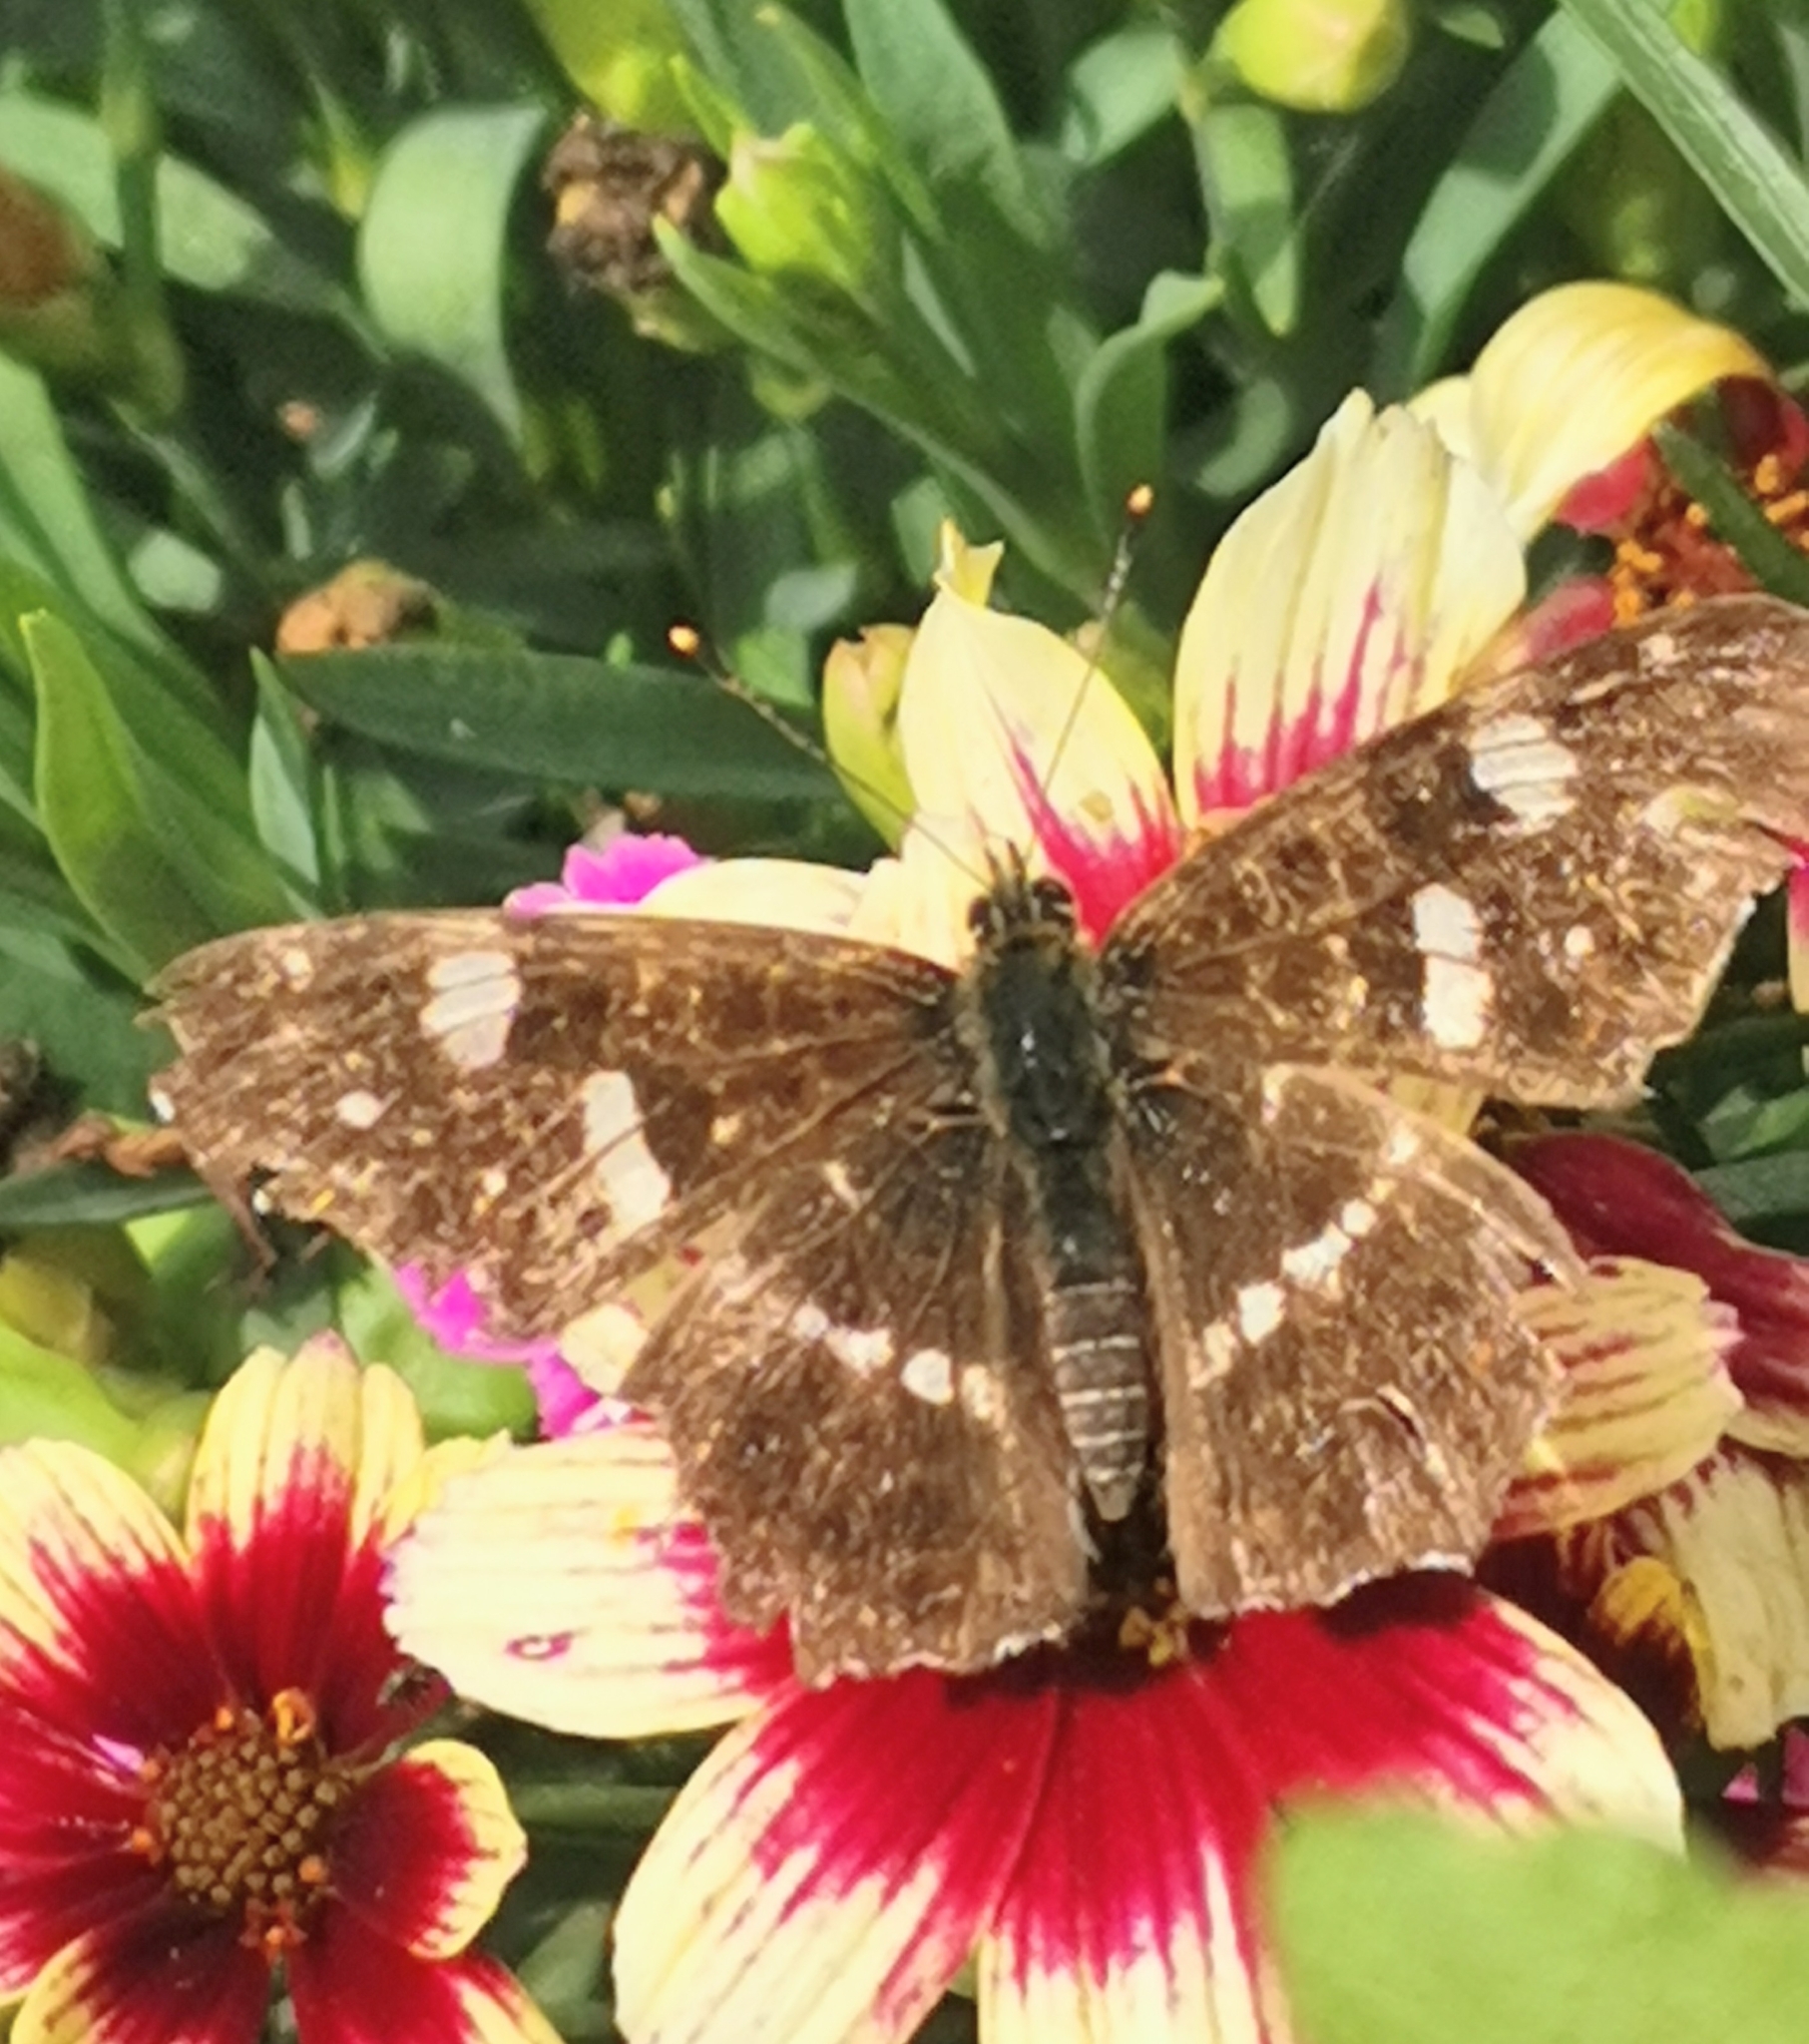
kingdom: Animalia
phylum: Arthropoda
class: Insecta
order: Lepidoptera
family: Nymphalidae
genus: Araschnia
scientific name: Araschnia levana
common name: Map butterfly
